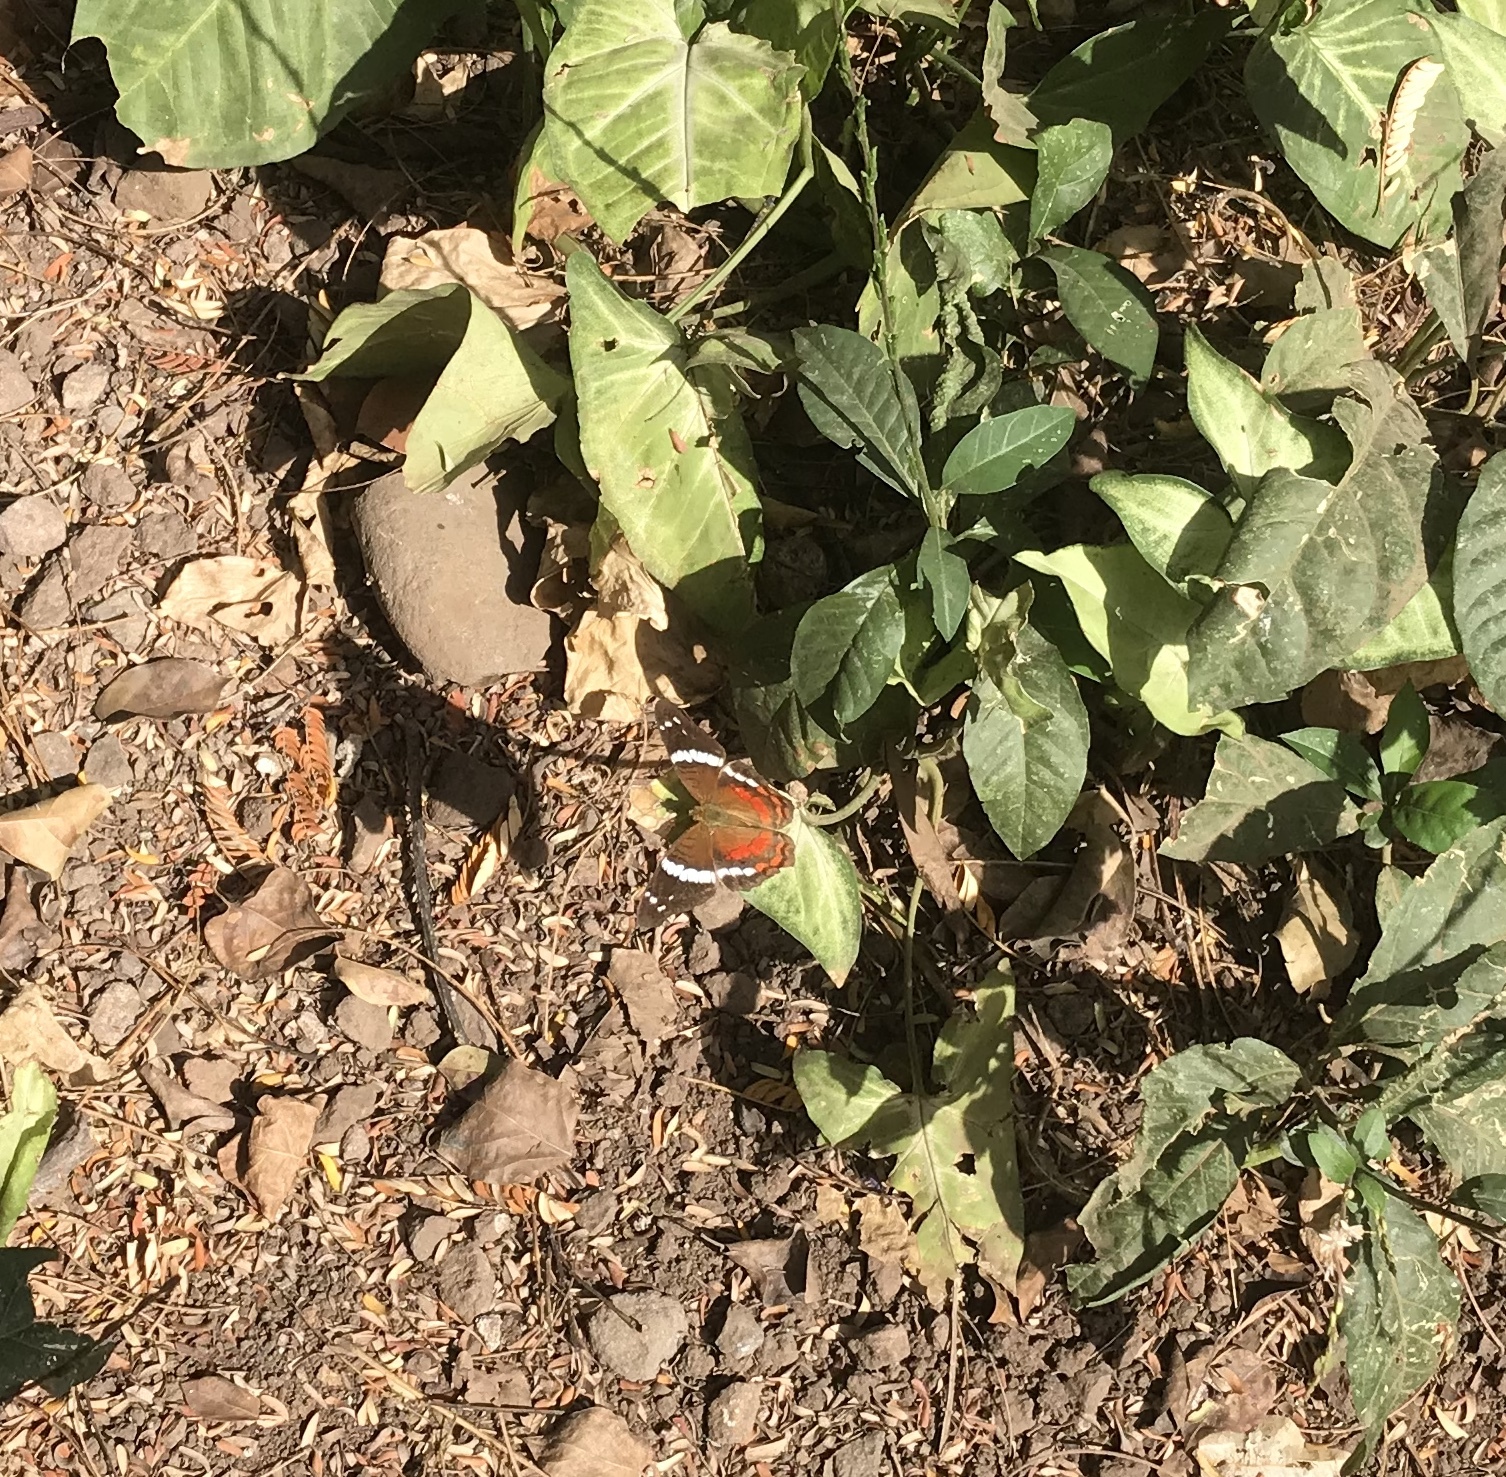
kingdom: Animalia
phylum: Arthropoda
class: Insecta
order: Lepidoptera
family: Nymphalidae
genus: Anartia
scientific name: Anartia fatima
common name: Banded peacock
